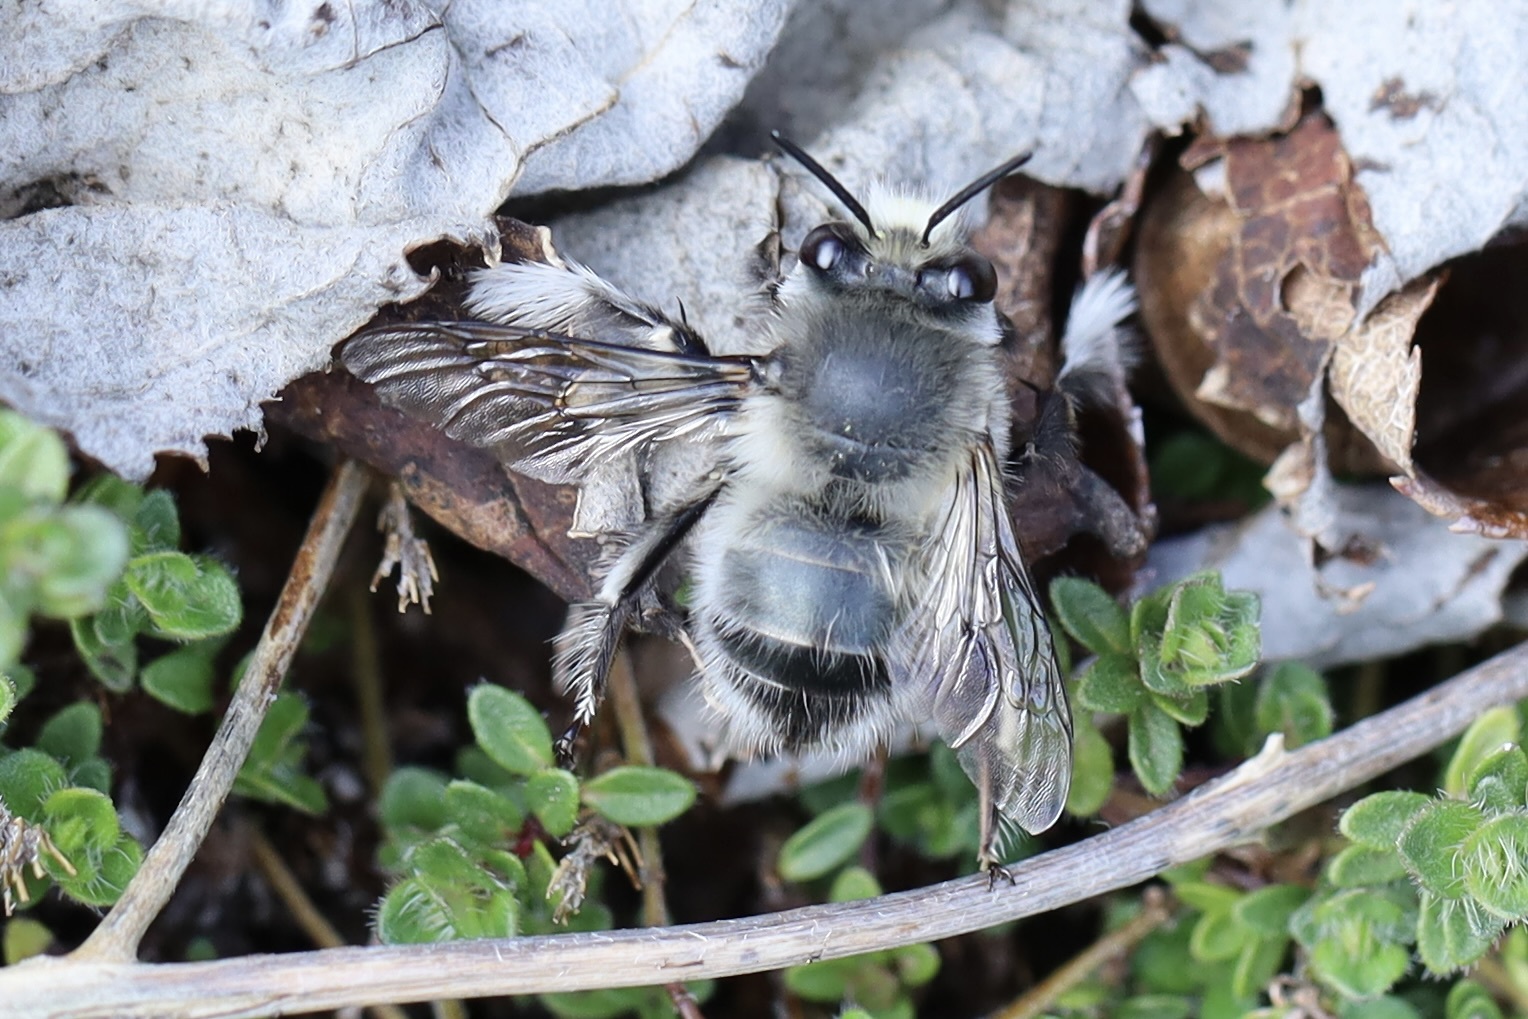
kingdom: Animalia
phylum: Arthropoda
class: Insecta
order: Hymenoptera
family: Apidae
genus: Anthophora
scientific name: Anthophora pacifica
